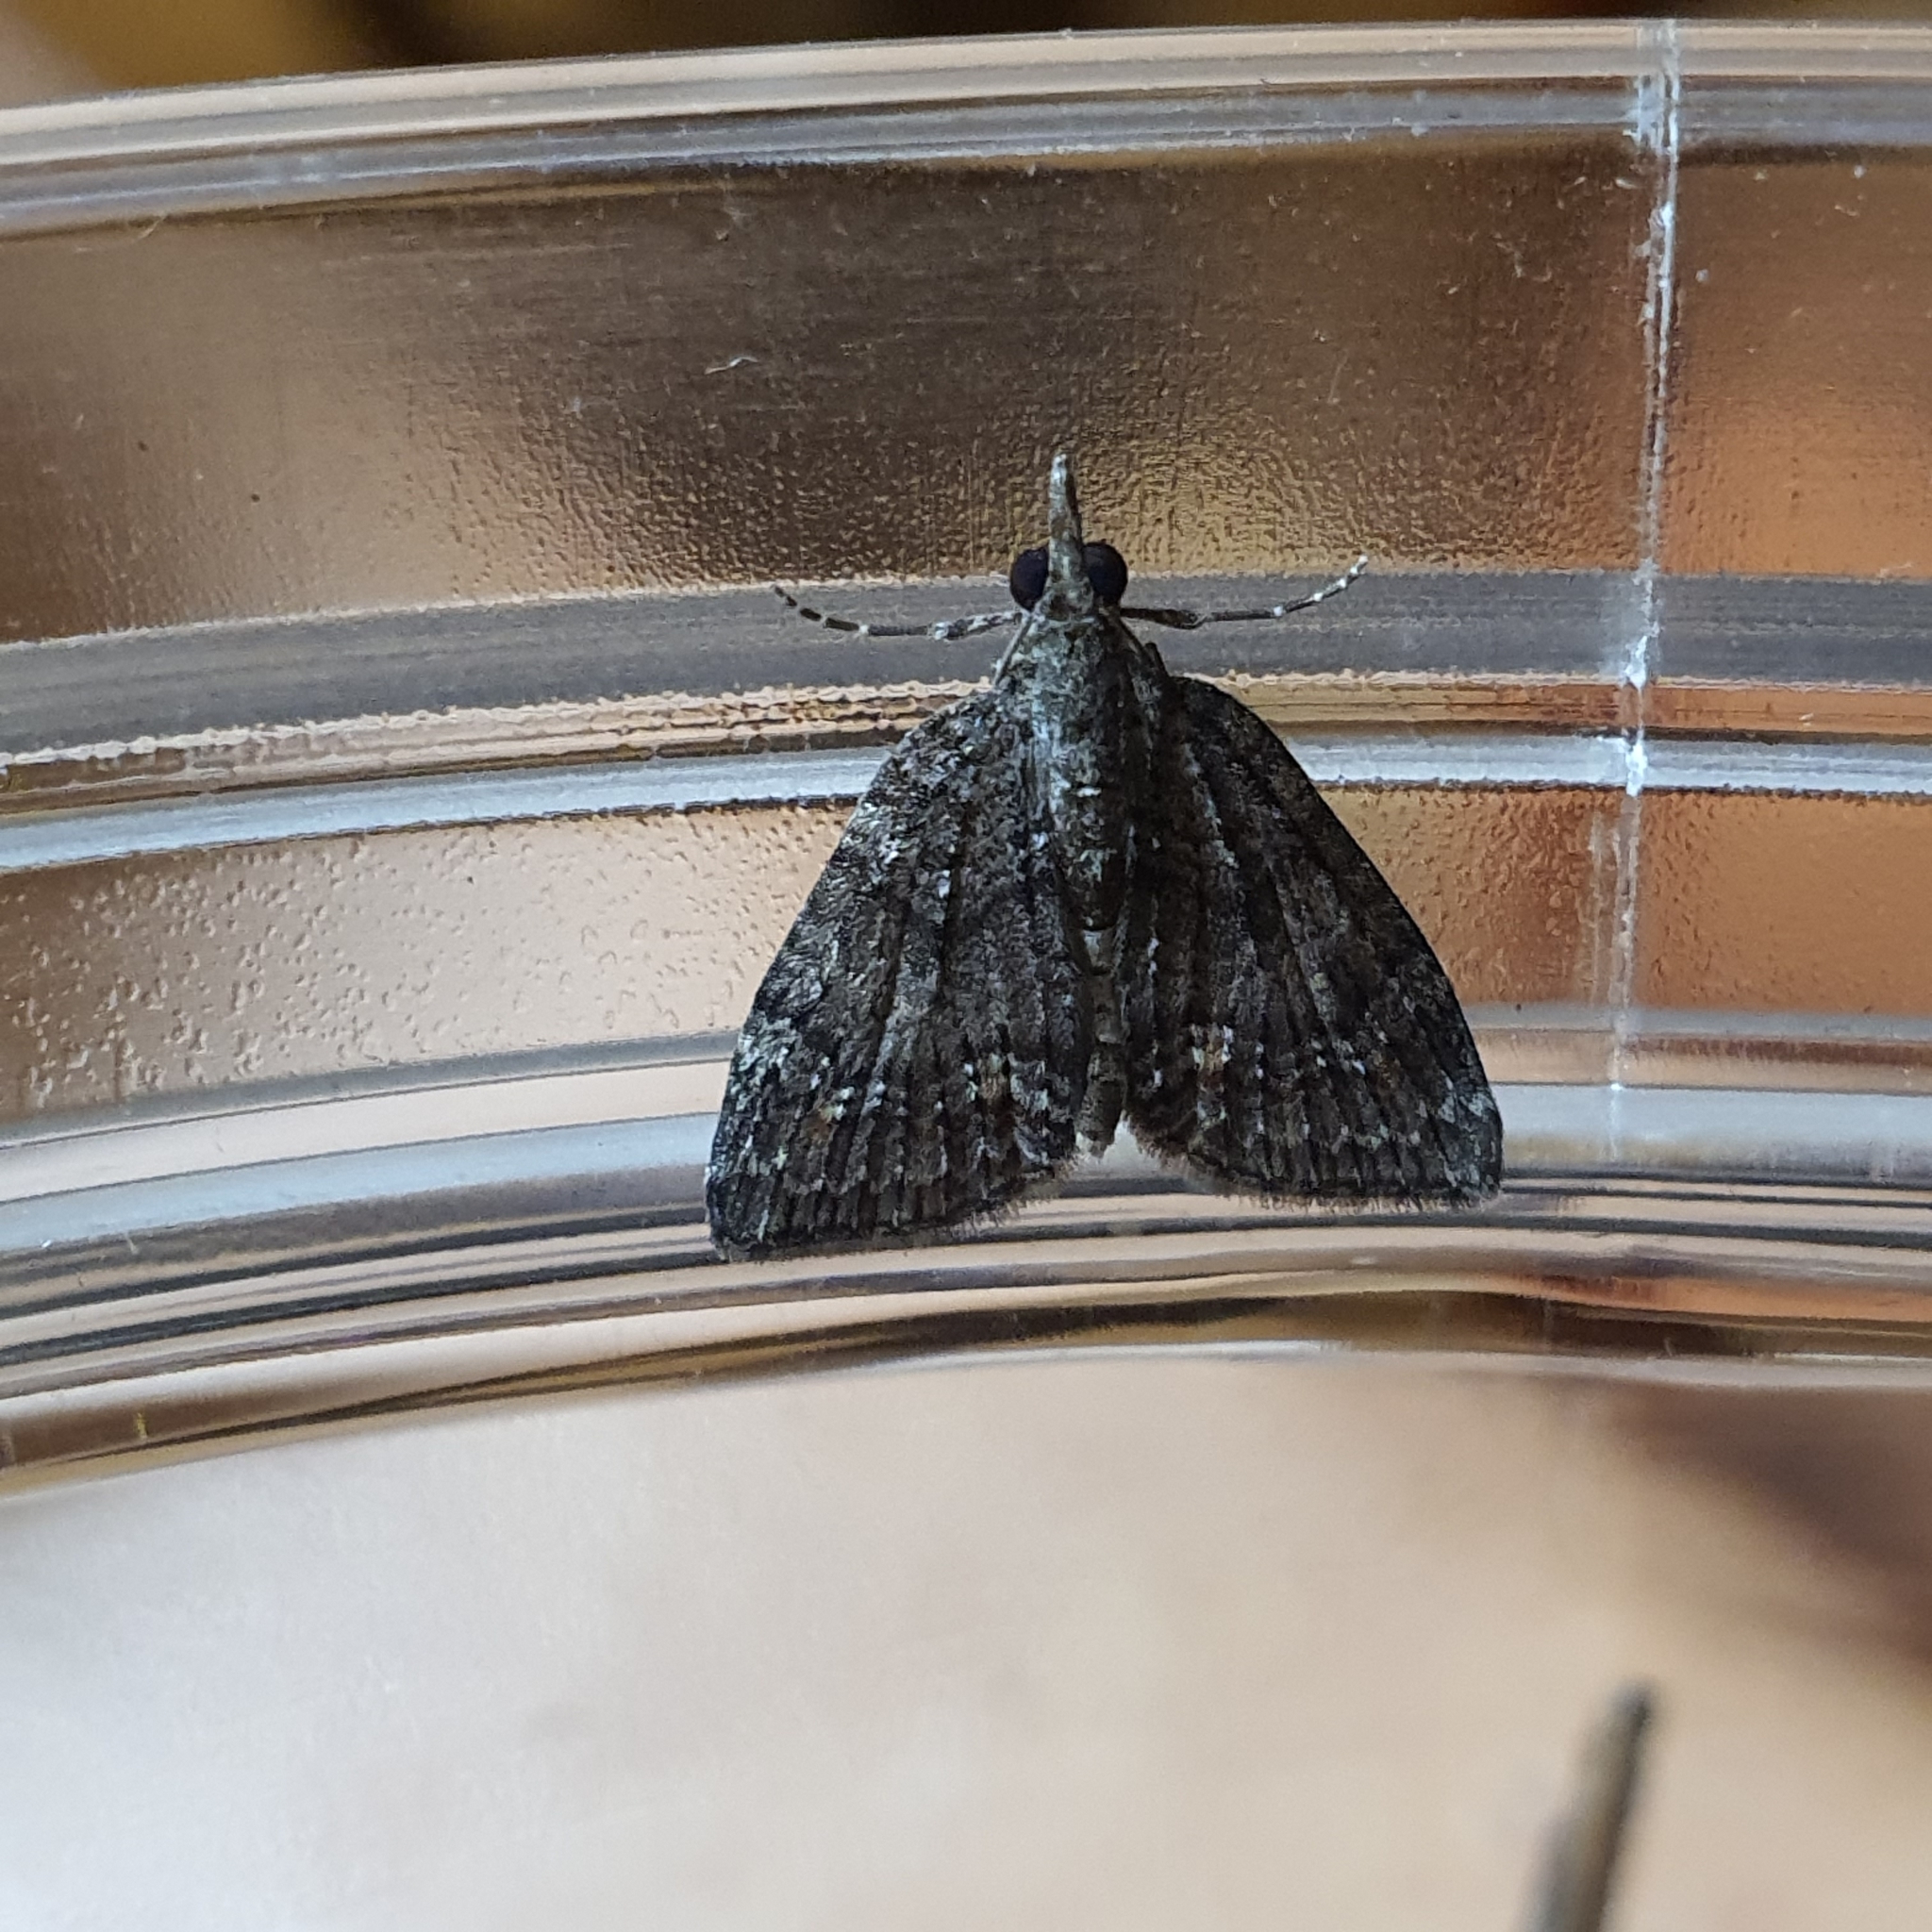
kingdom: Animalia
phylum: Arthropoda
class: Insecta
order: Lepidoptera
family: Geometridae
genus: Microdes
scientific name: Microdes squamulata
